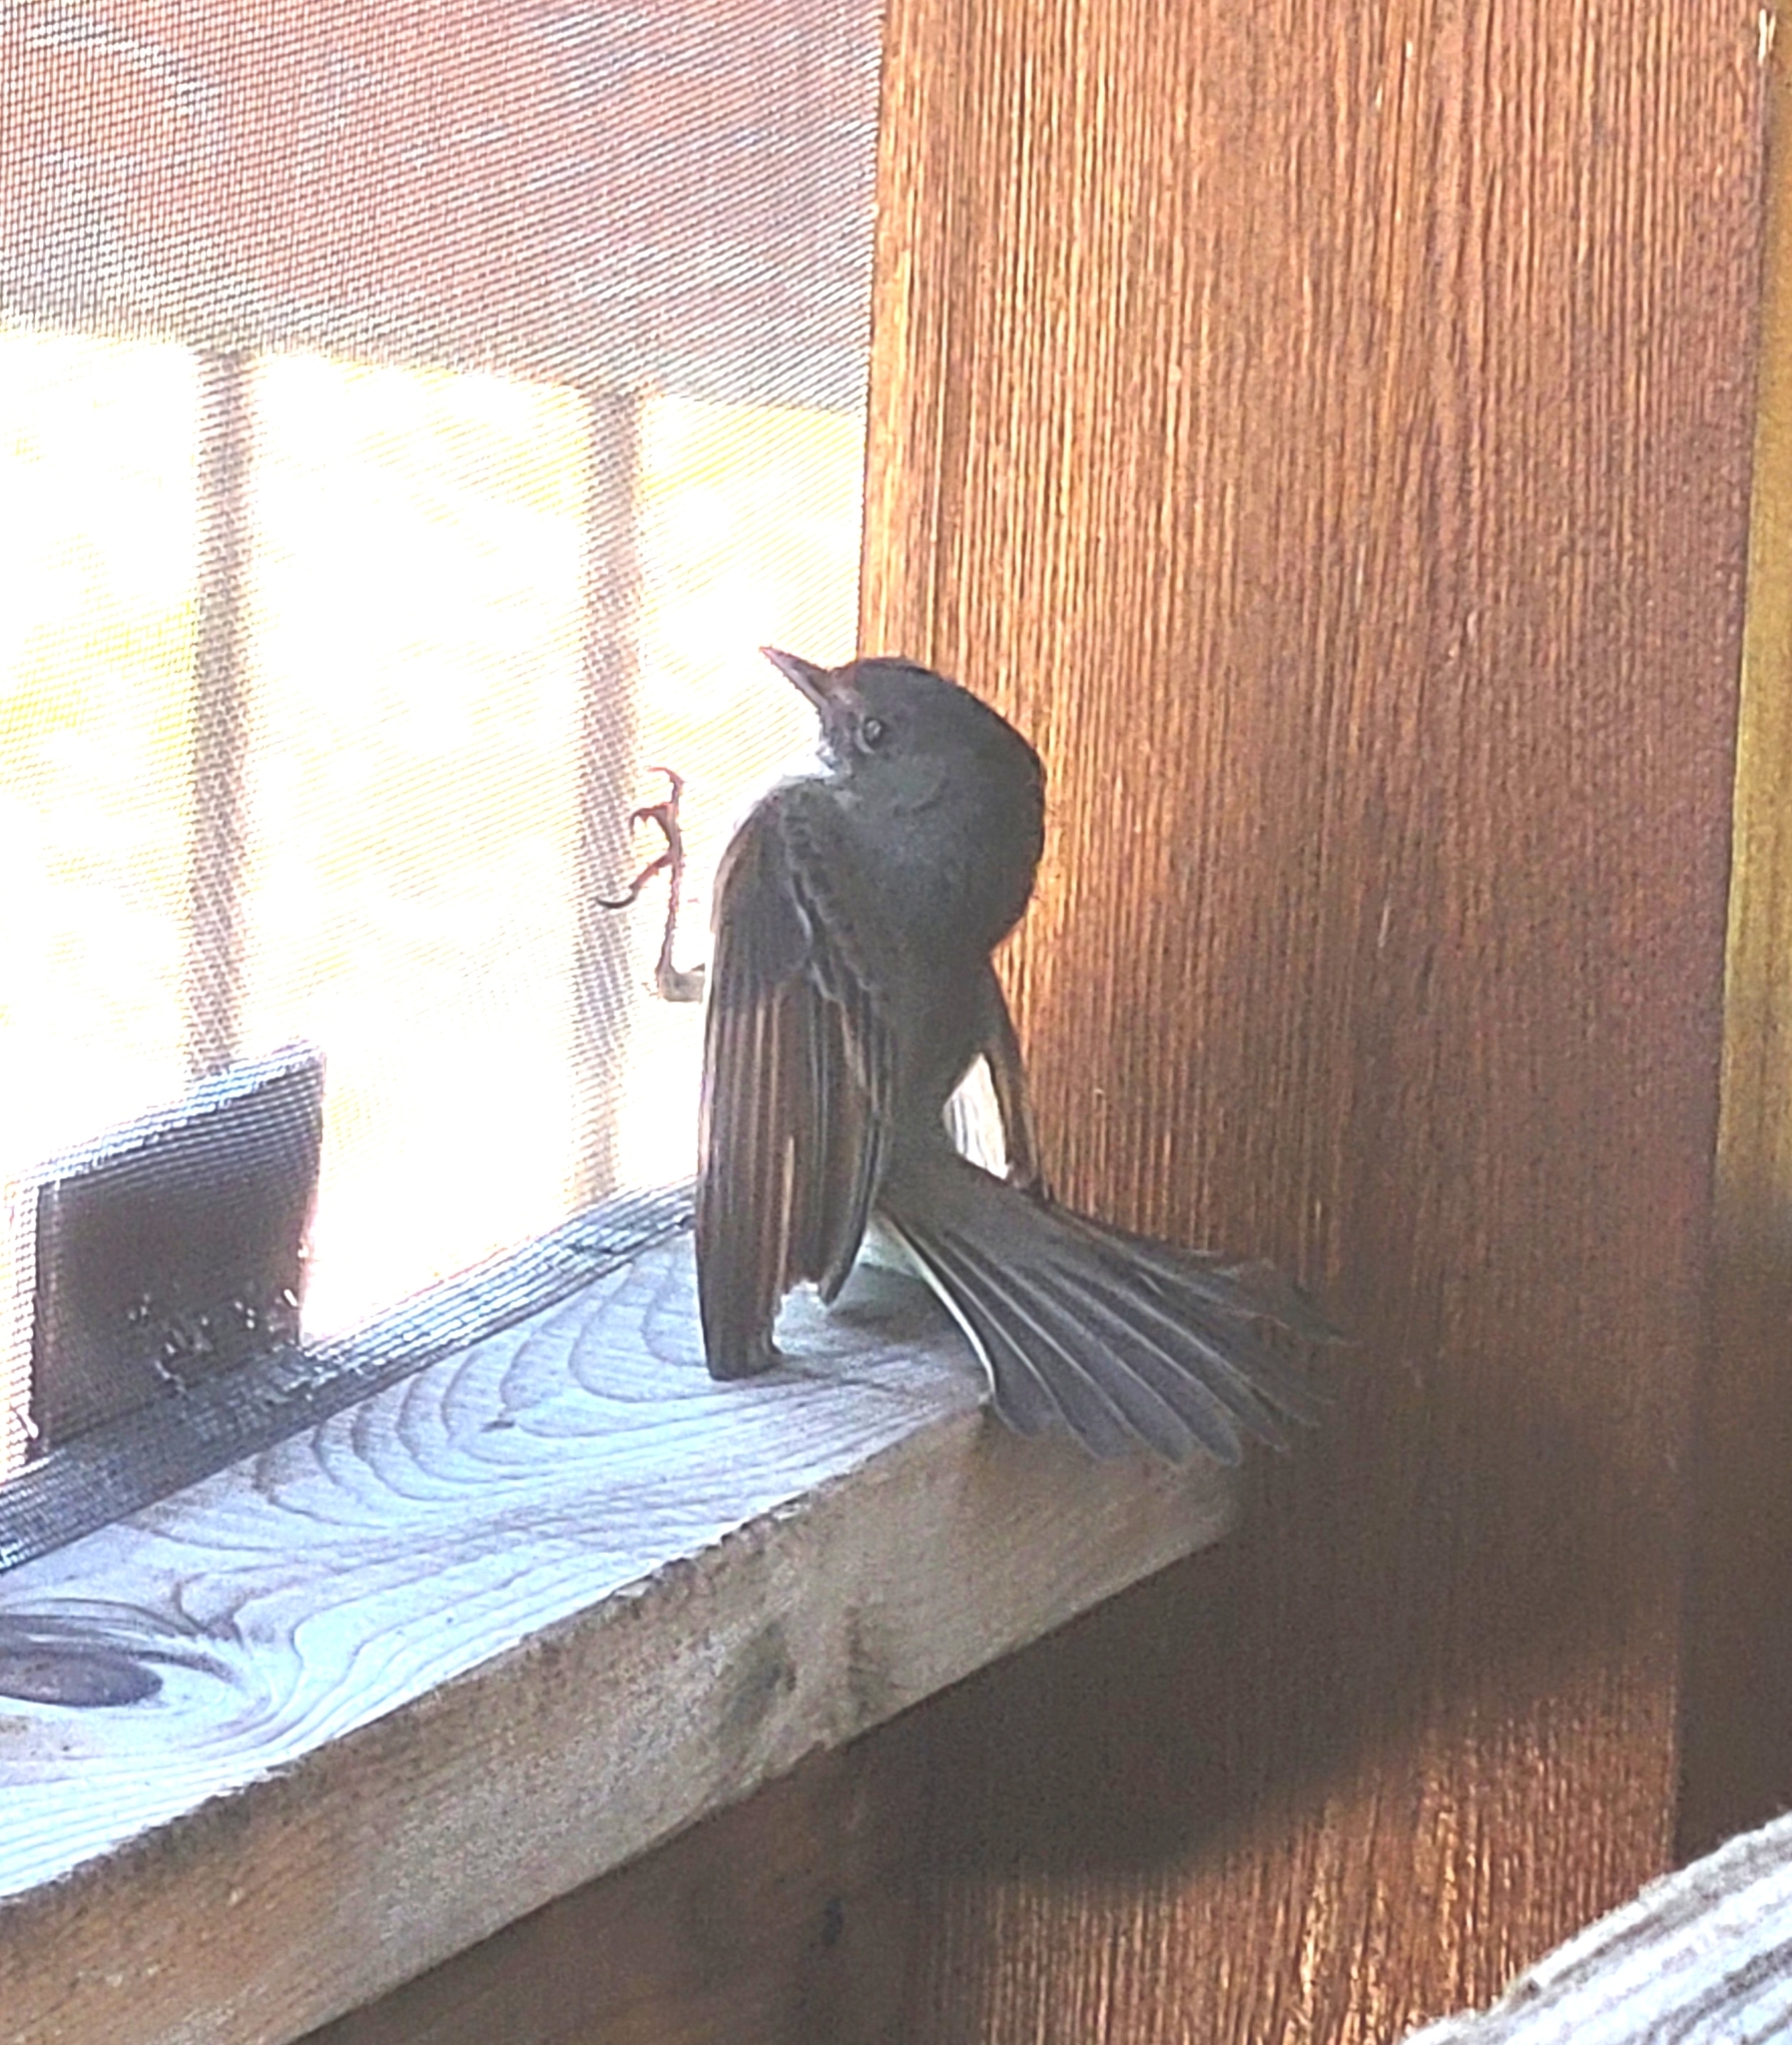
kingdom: Animalia
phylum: Chordata
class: Aves
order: Passeriformes
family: Tyrannidae
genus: Sayornis
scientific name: Sayornis phoebe
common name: Eastern phoebe
